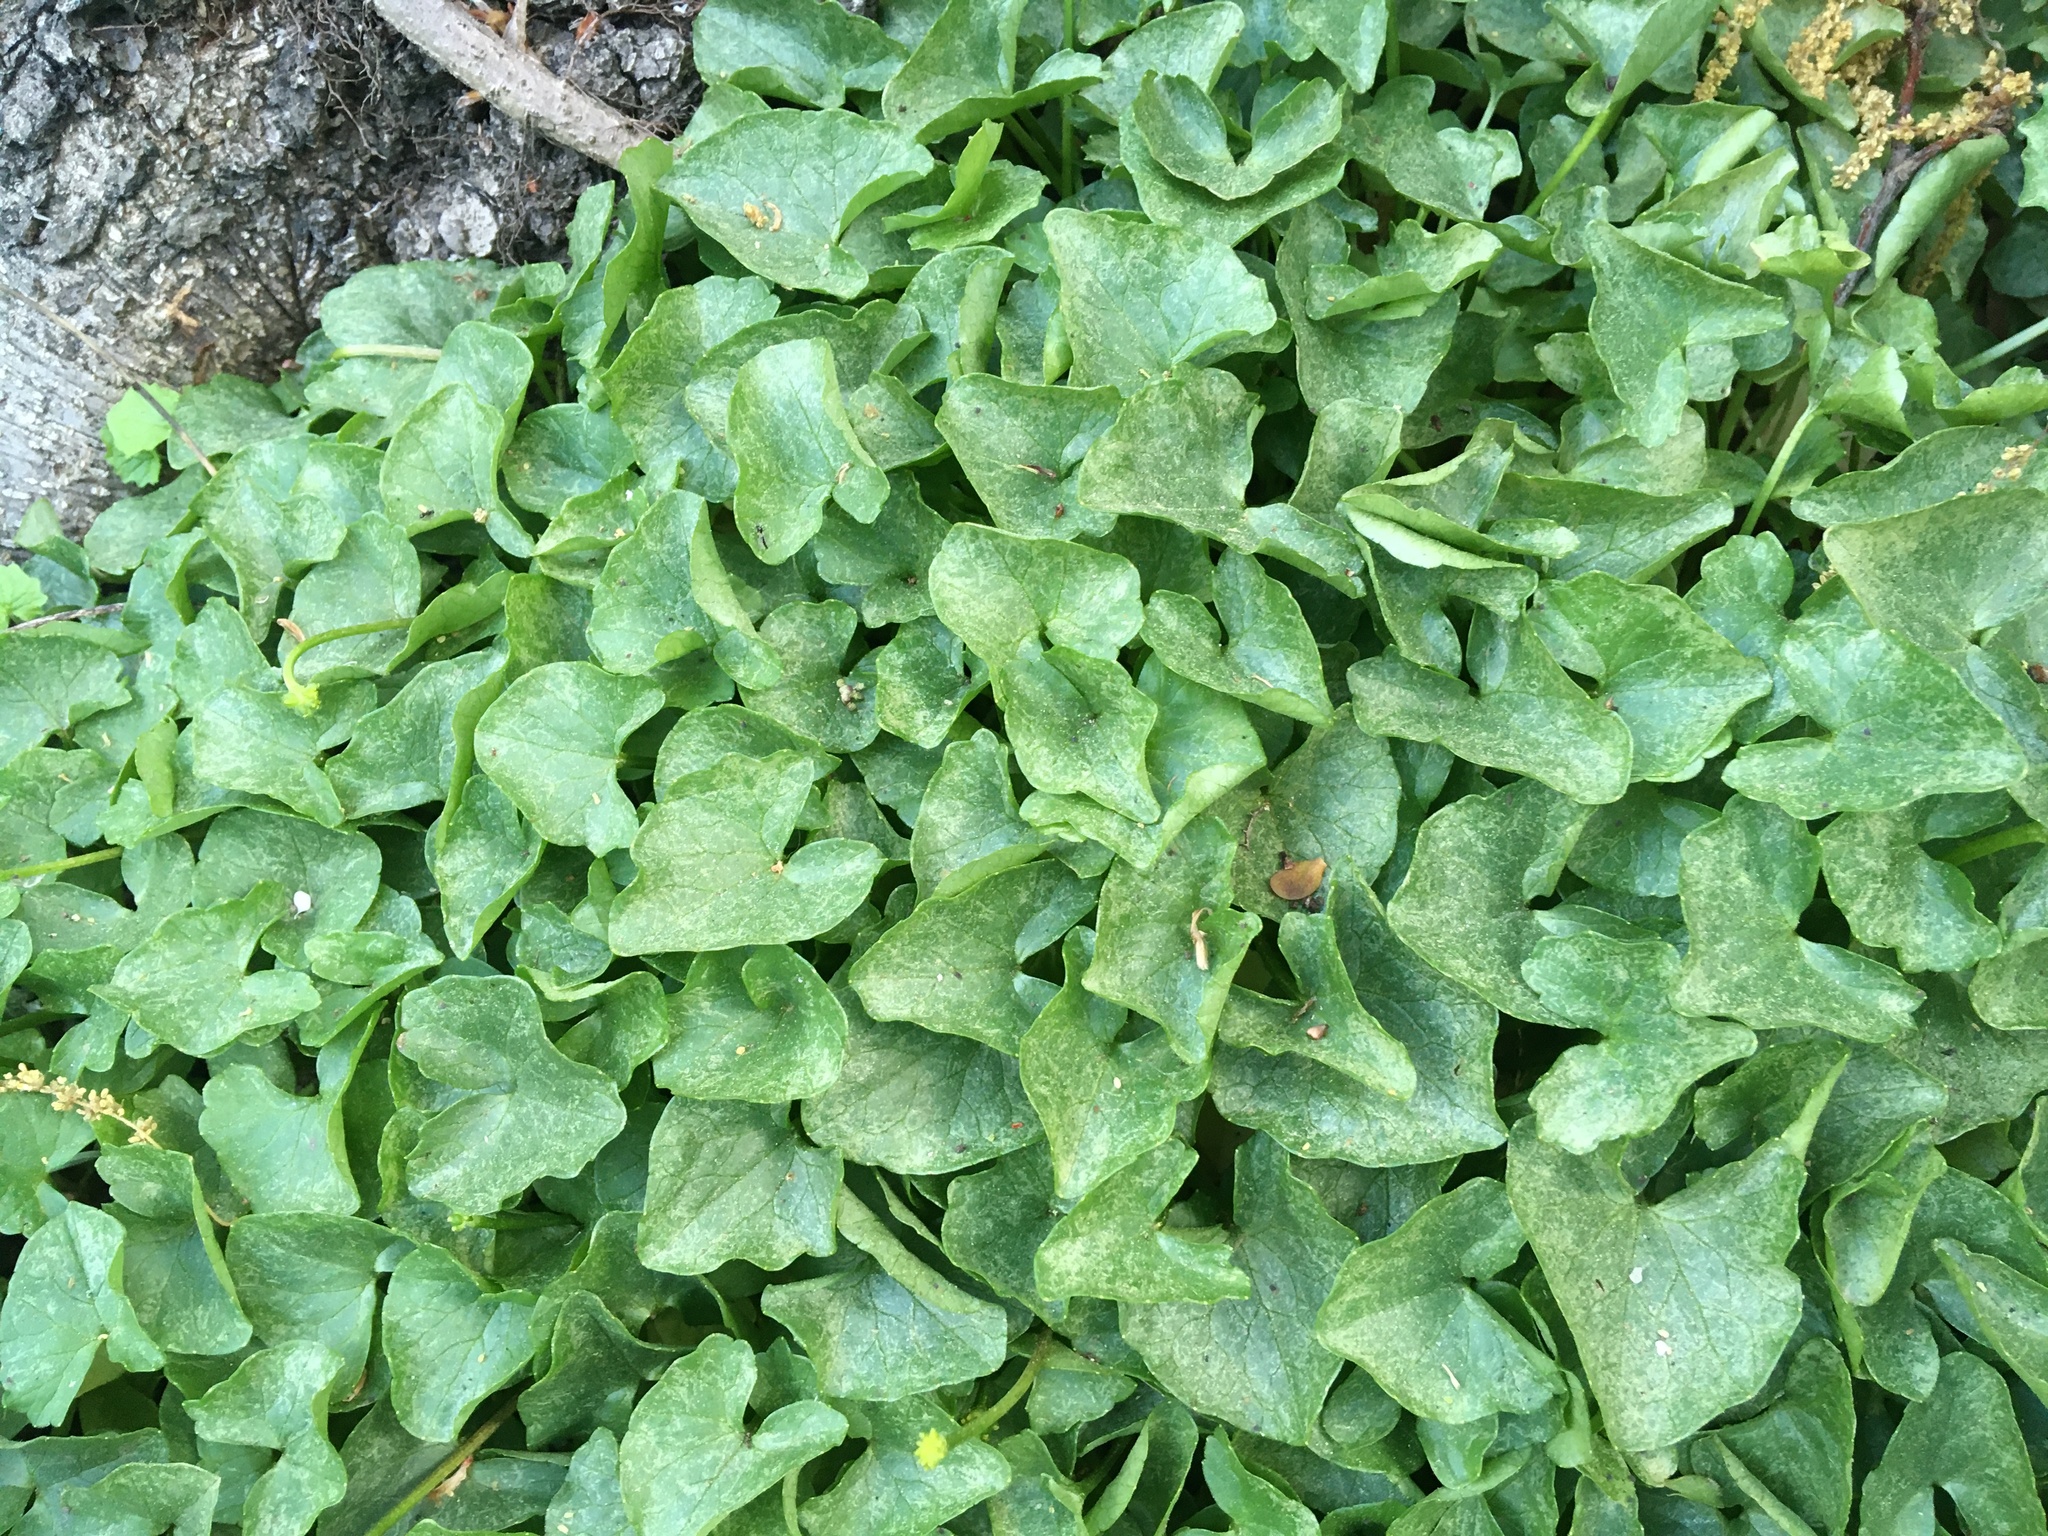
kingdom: Plantae
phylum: Tracheophyta
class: Magnoliopsida
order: Ranunculales
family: Ranunculaceae
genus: Ficaria
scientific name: Ficaria verna
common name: Lesser celandine
